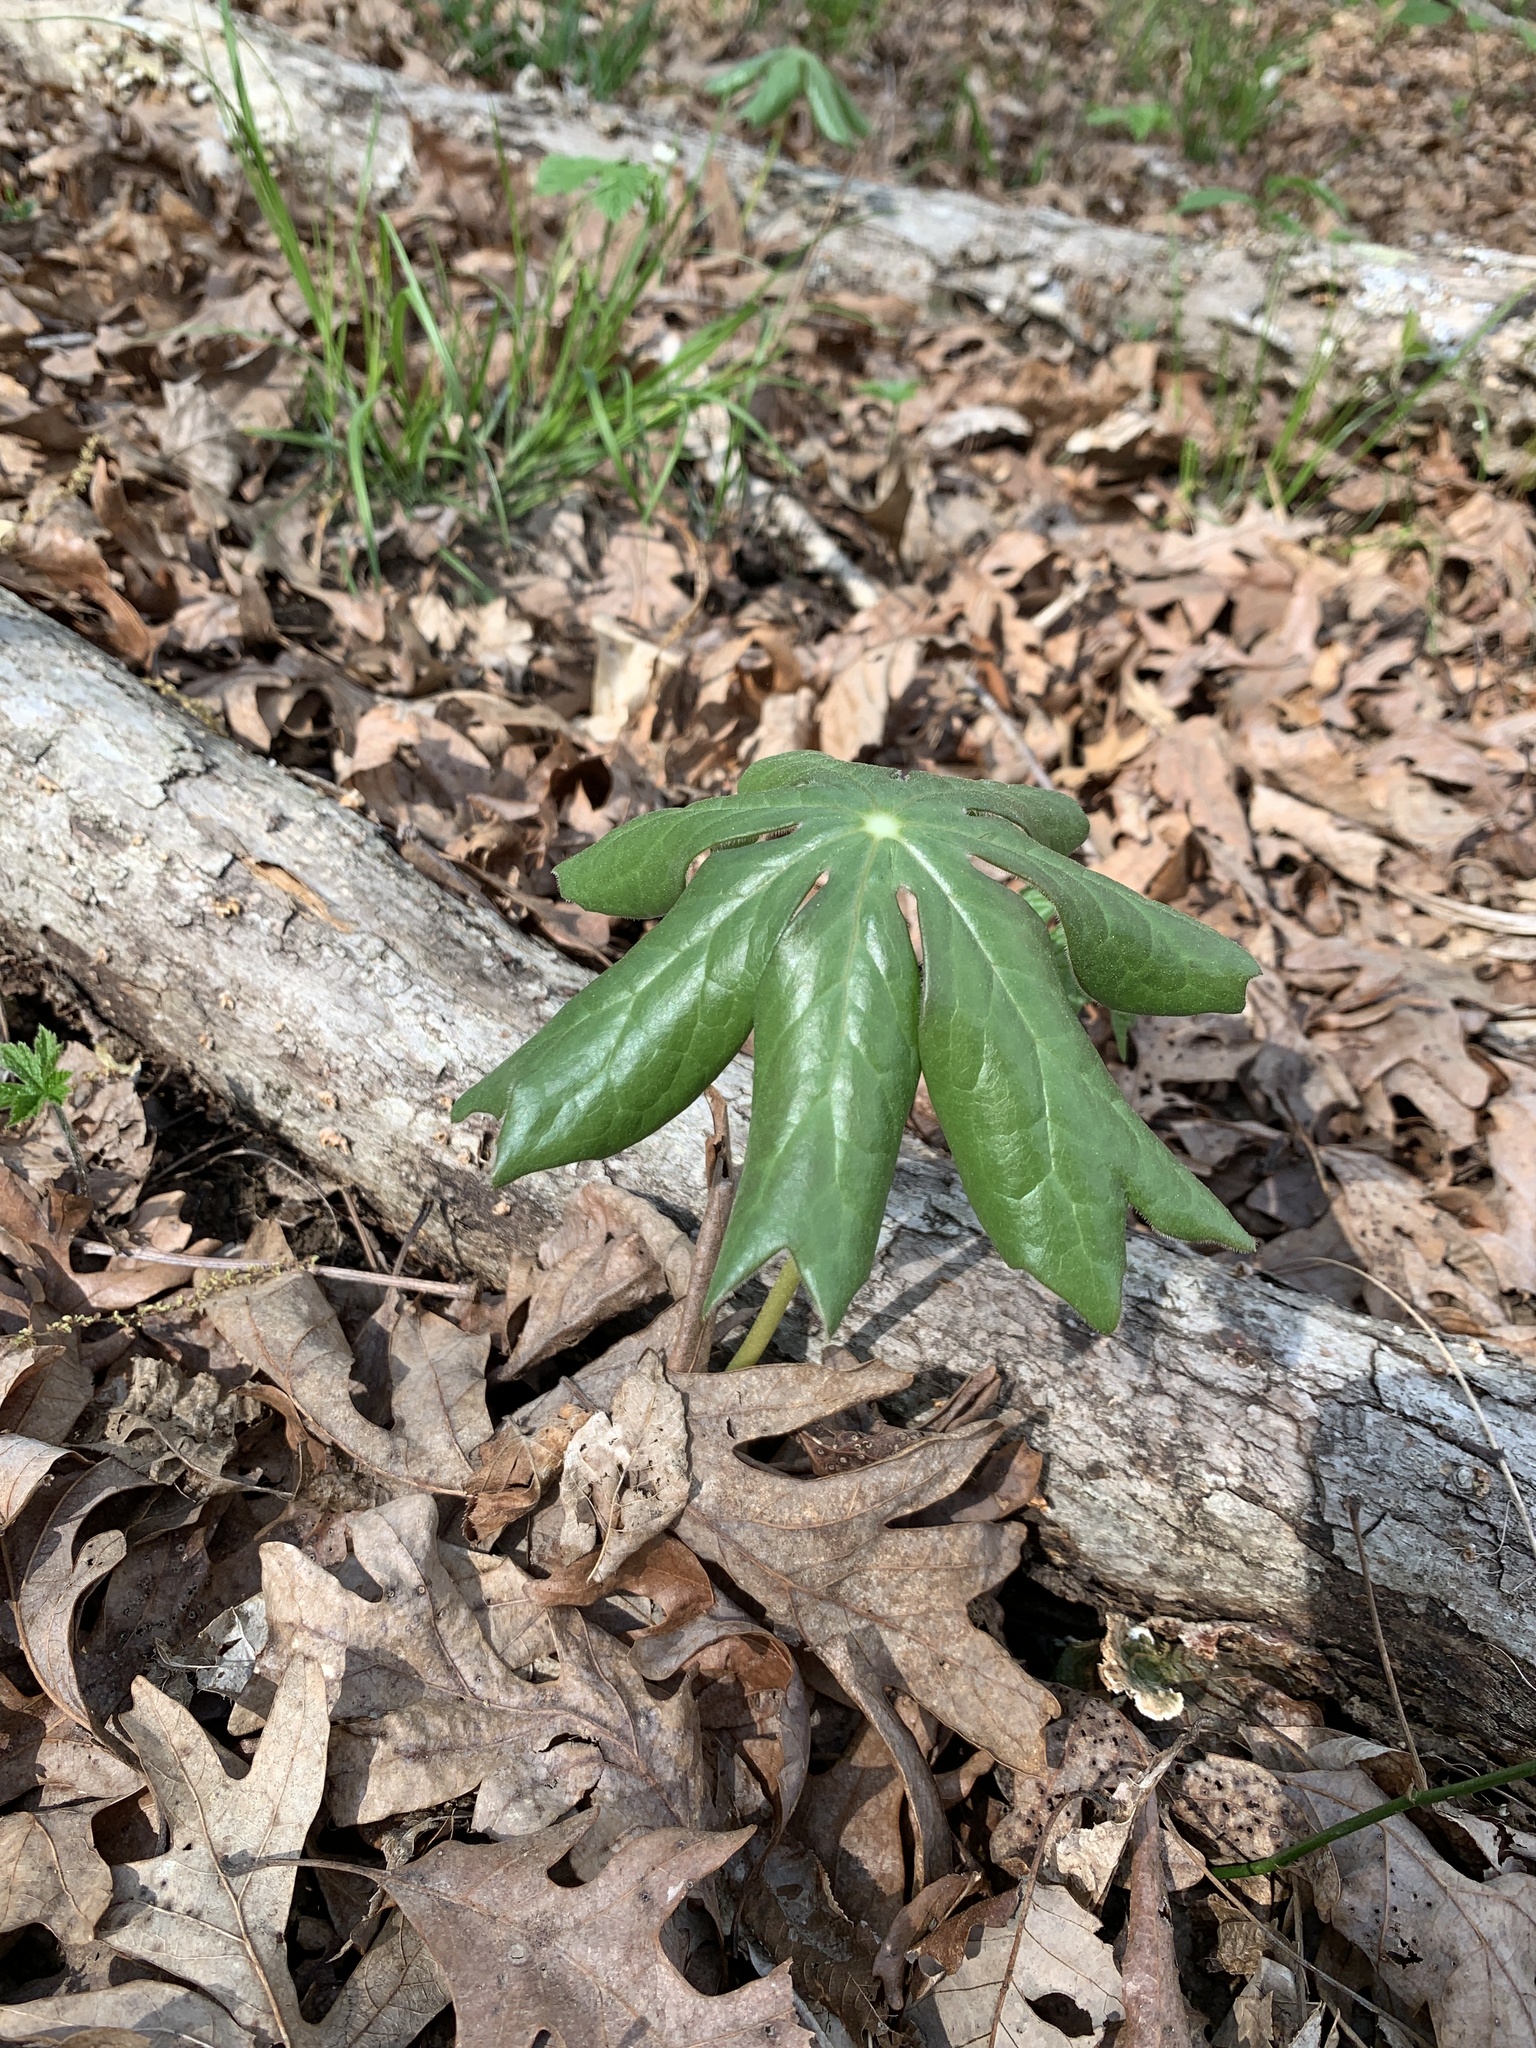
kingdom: Plantae
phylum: Tracheophyta
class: Magnoliopsida
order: Ranunculales
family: Berberidaceae
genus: Podophyllum
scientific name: Podophyllum peltatum
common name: Wild mandrake
